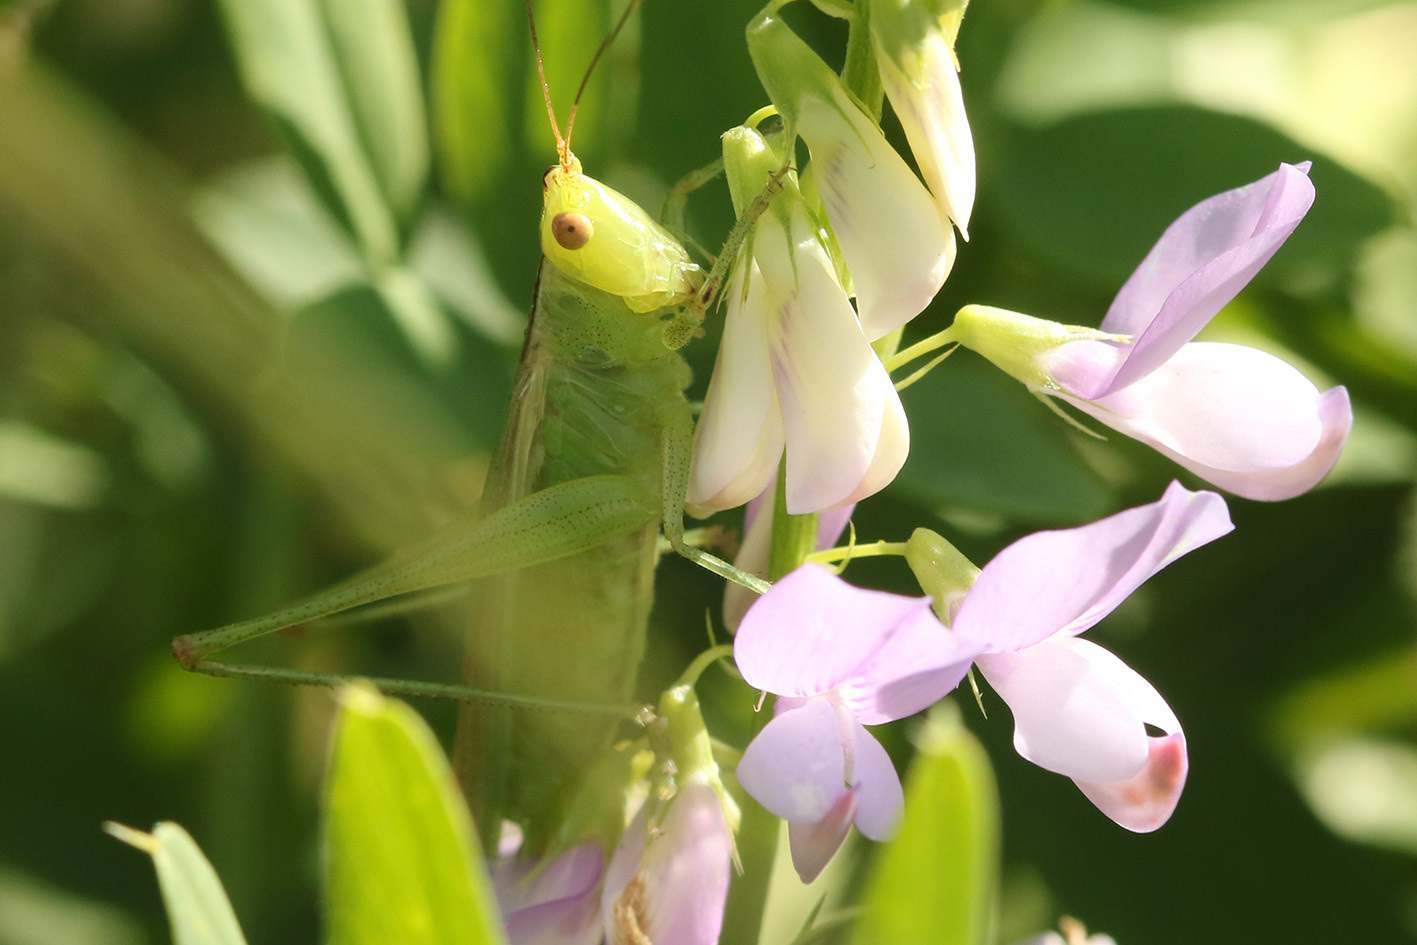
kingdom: Animalia
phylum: Arthropoda
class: Insecta
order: Orthoptera
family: Tettigoniidae
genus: Conocephalus
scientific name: Conocephalus longipes
